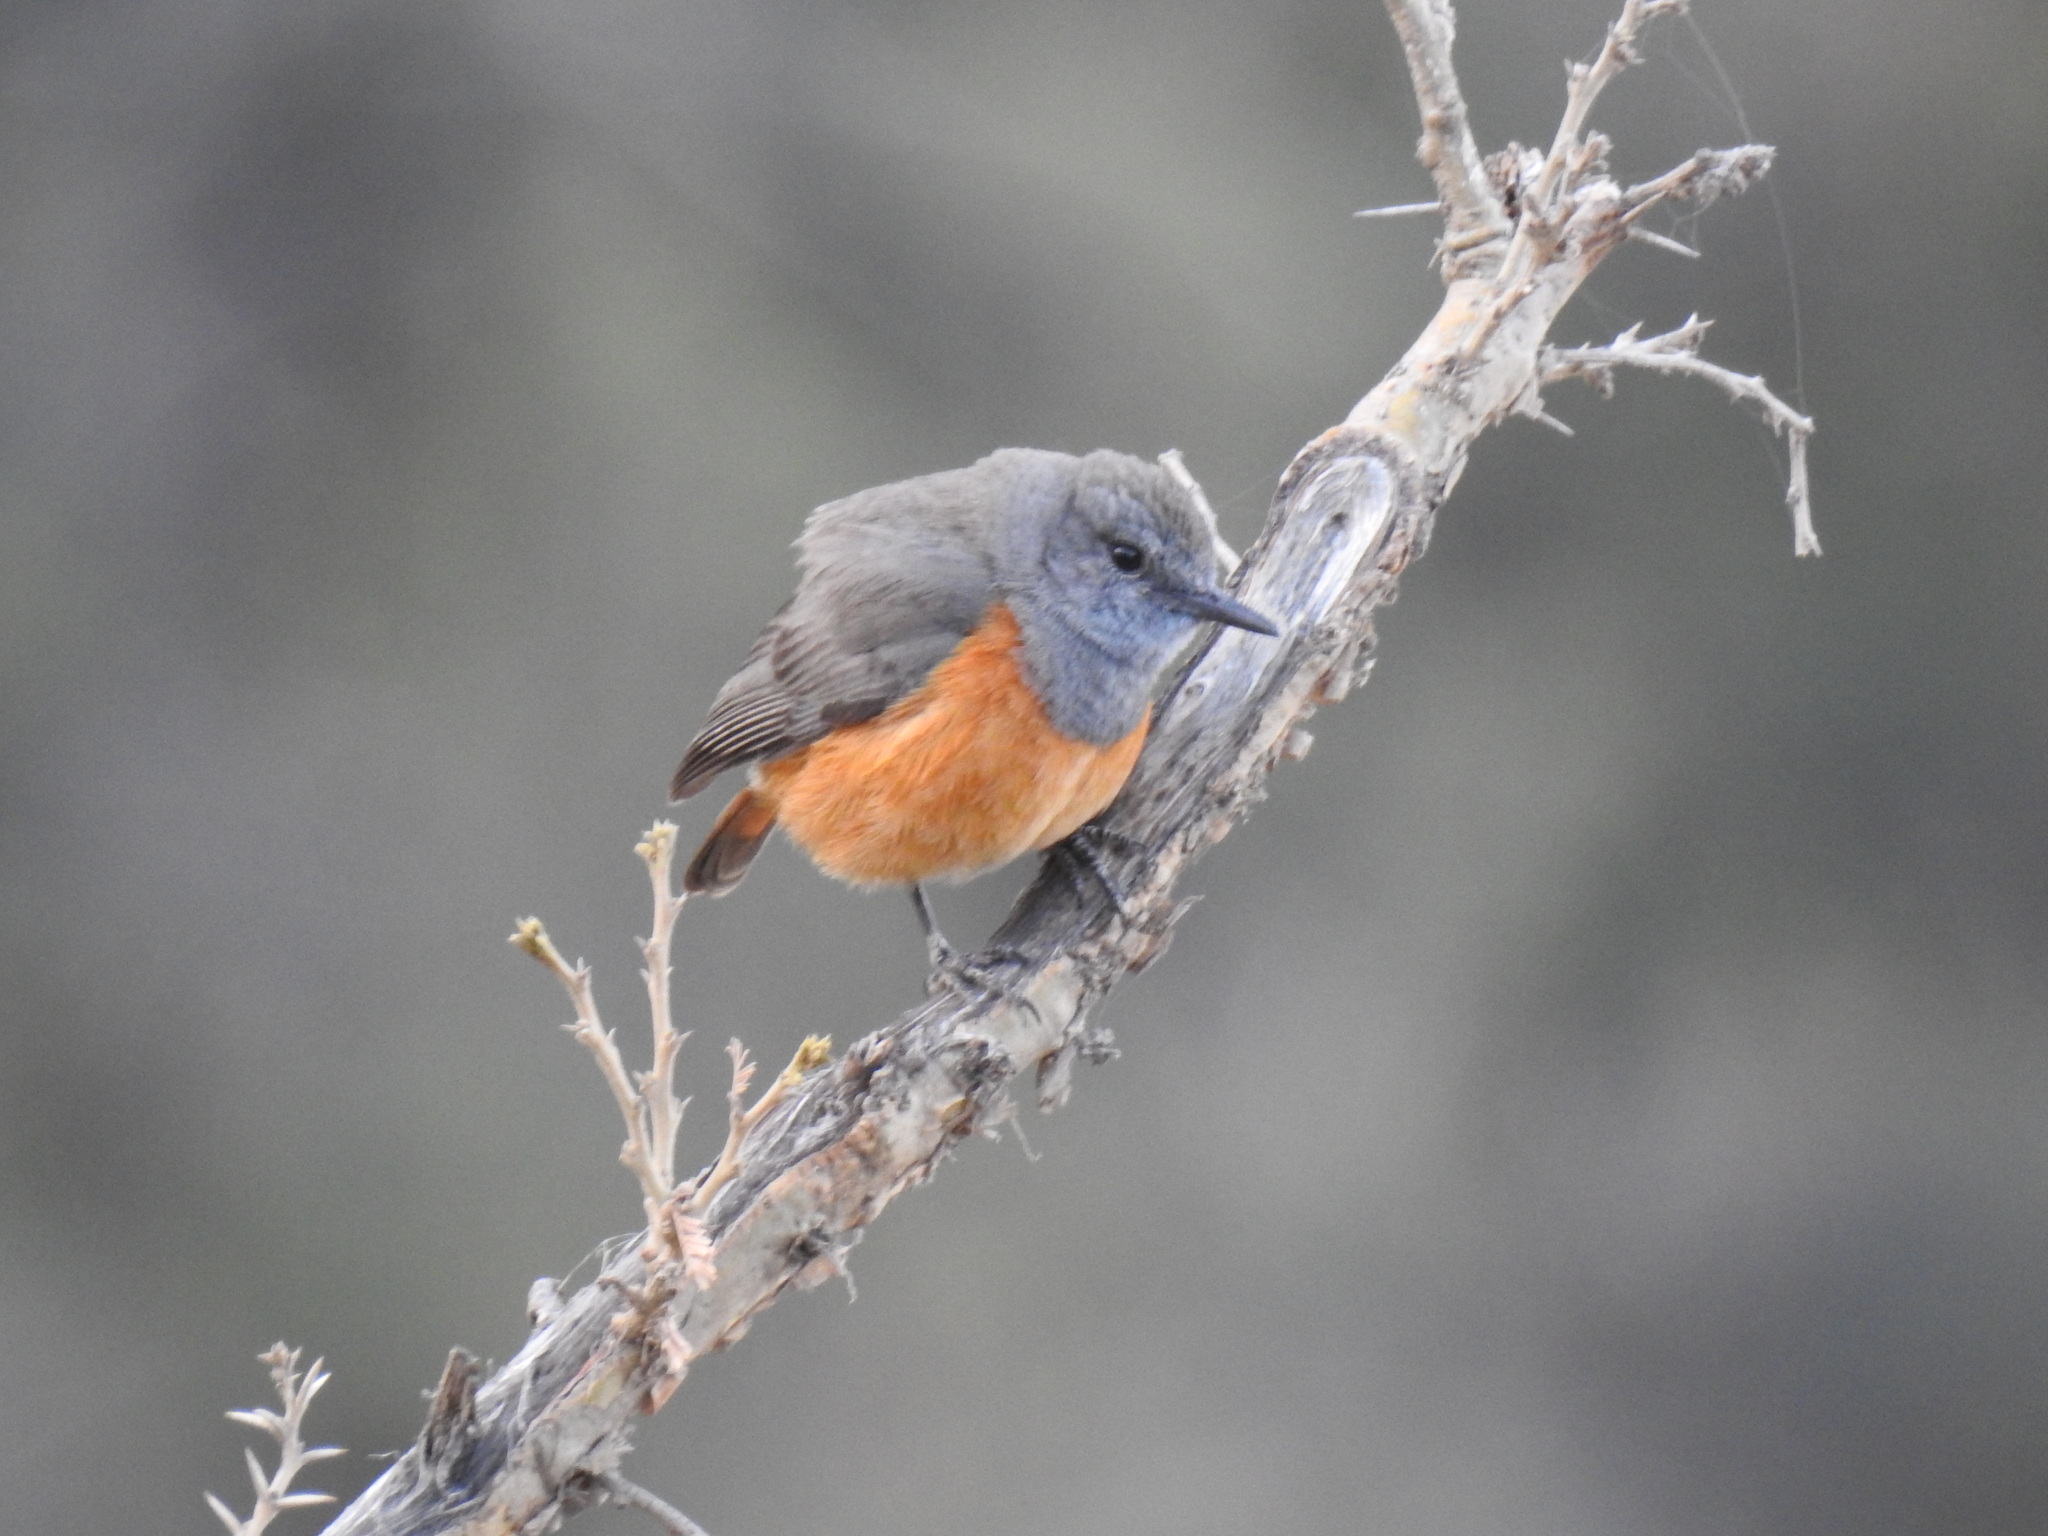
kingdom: Animalia
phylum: Chordata
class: Aves
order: Passeriformes
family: Muscicapidae
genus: Monticola
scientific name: Monticola rufocinereus
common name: Little rock thrush
